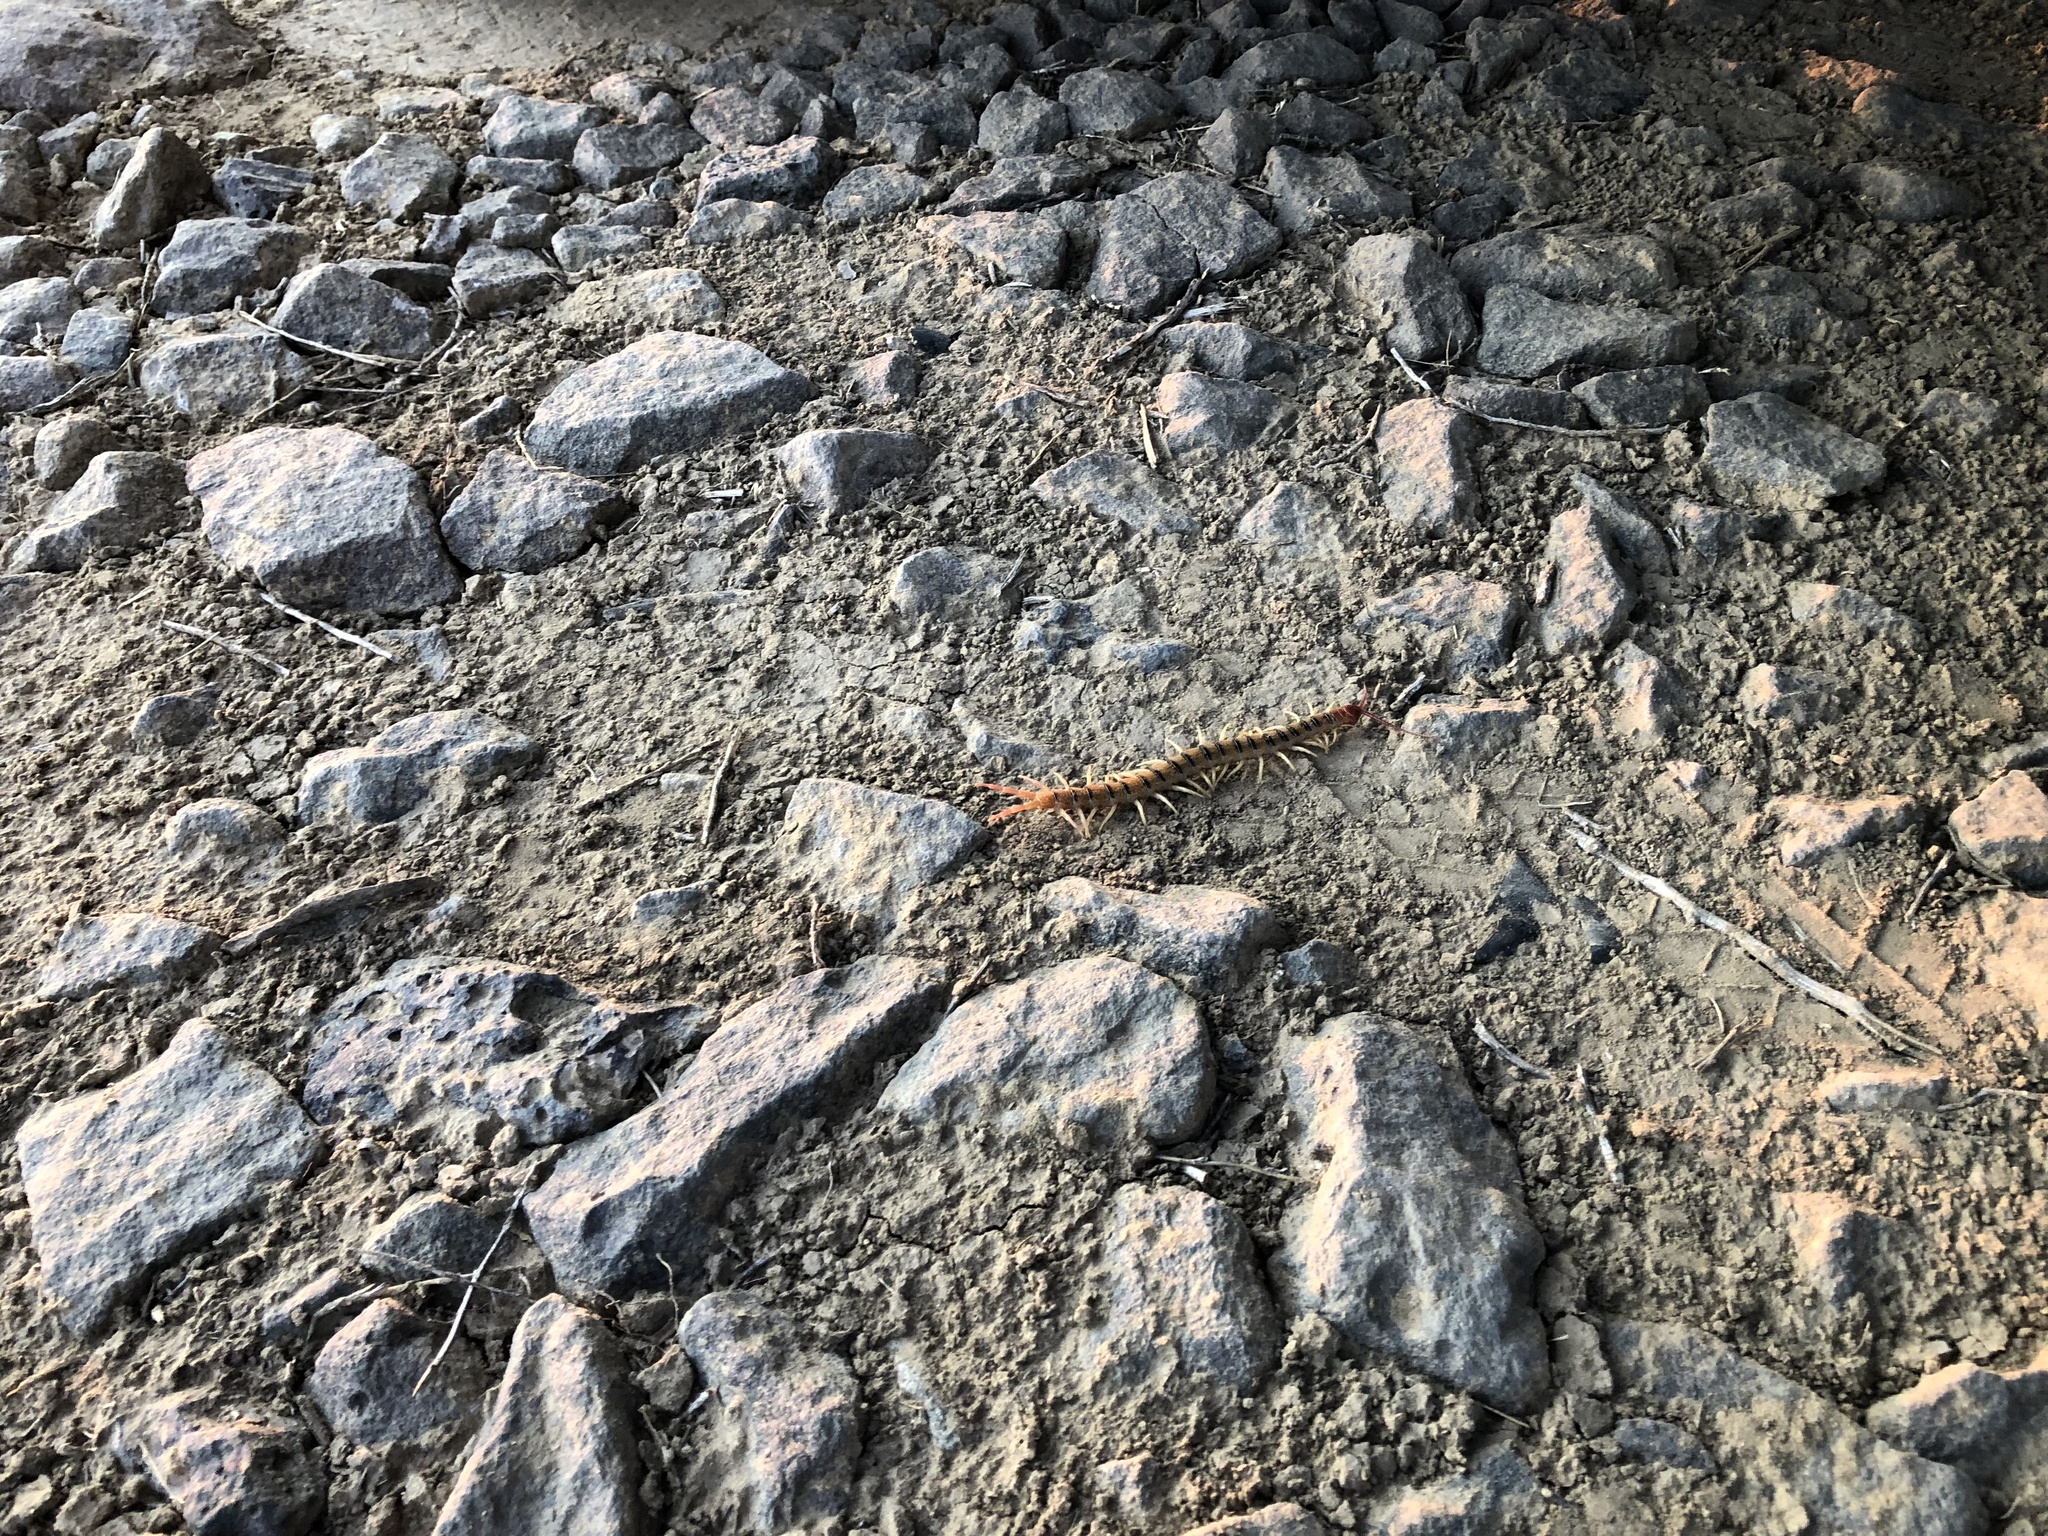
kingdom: Animalia
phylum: Arthropoda
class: Chilopoda
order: Scolopendromorpha
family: Scolopendridae
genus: Scolopendra
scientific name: Scolopendra polymorpha
